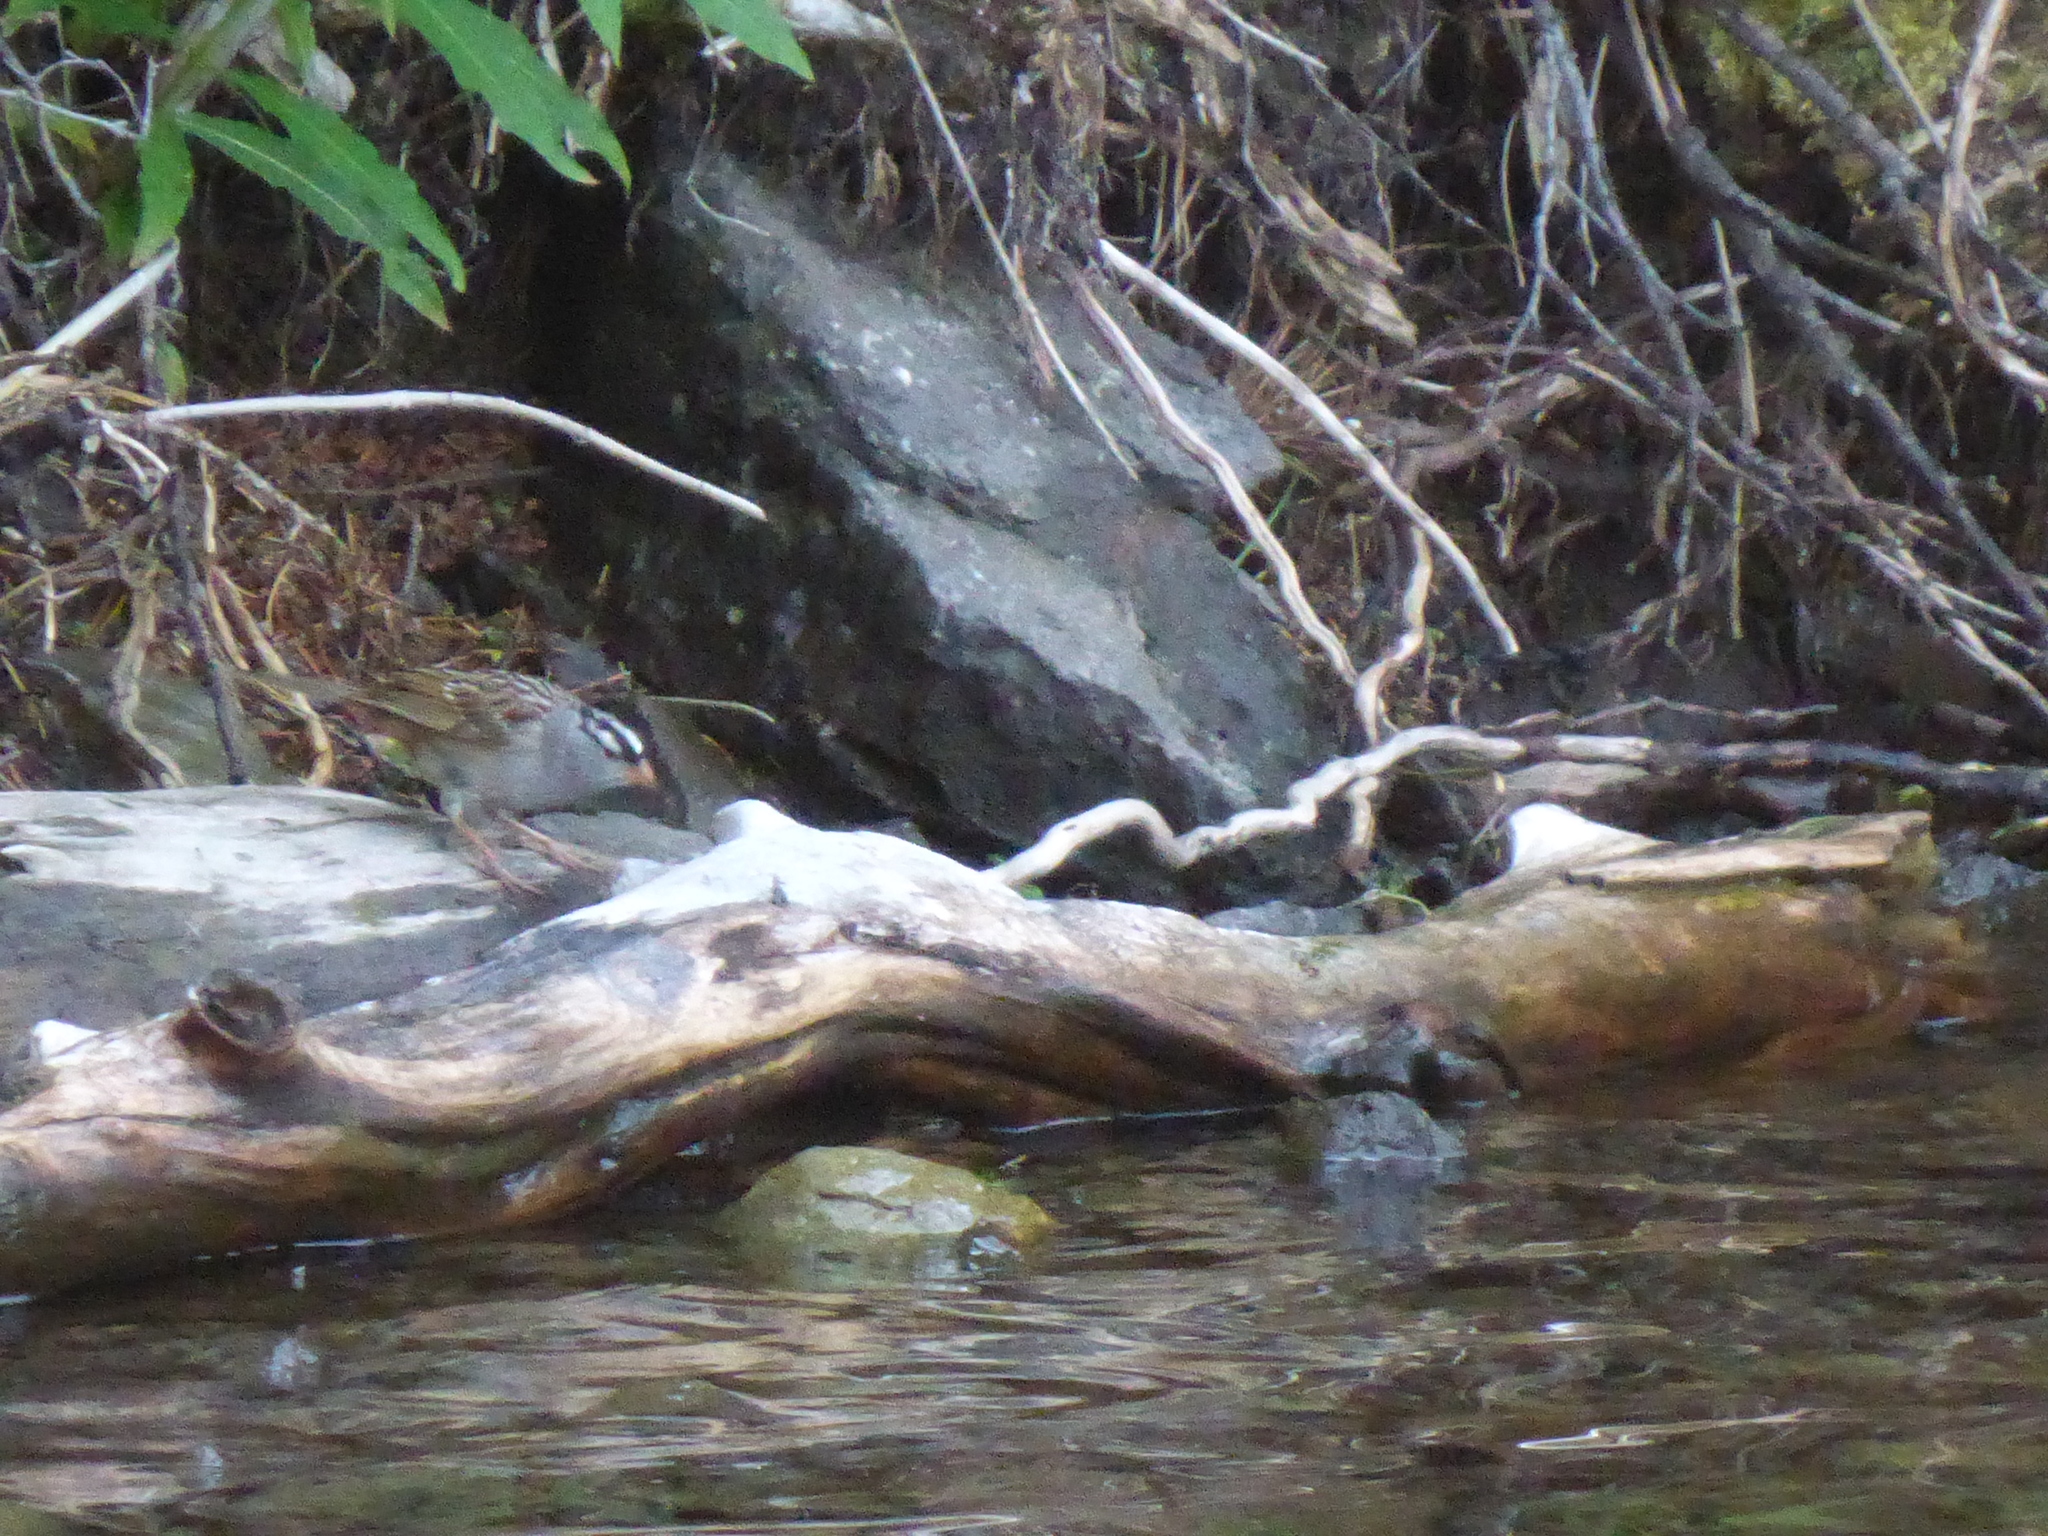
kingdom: Animalia
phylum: Chordata
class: Aves
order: Passeriformes
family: Passerellidae
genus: Zonotrichia
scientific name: Zonotrichia leucophrys
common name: White-crowned sparrow
